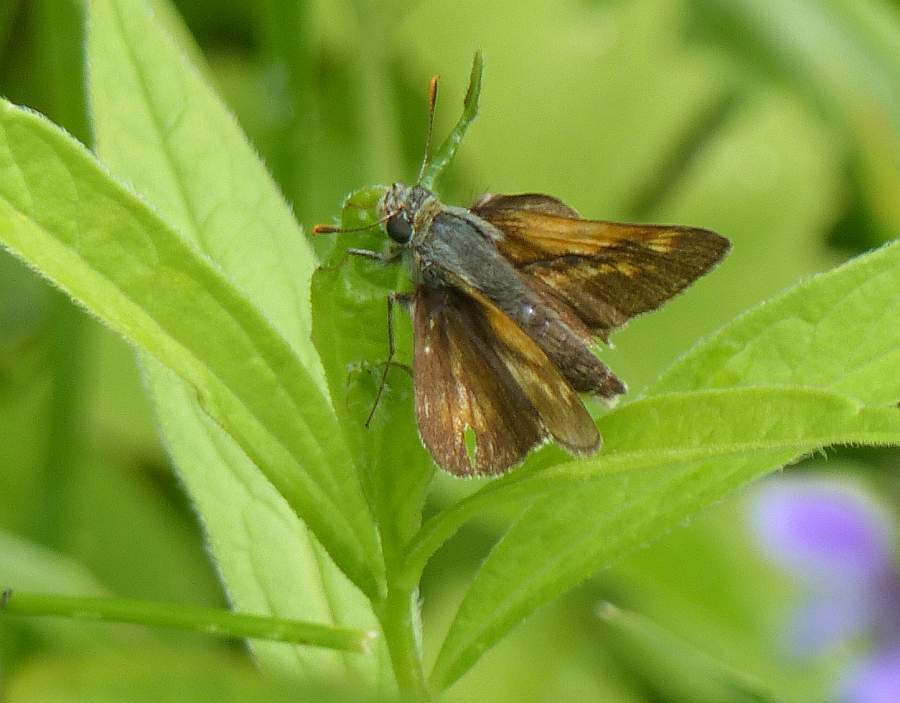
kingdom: Animalia
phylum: Arthropoda
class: Insecta
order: Lepidoptera
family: Hesperiidae
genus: Polites
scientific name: Polites mystic
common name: Long dash
